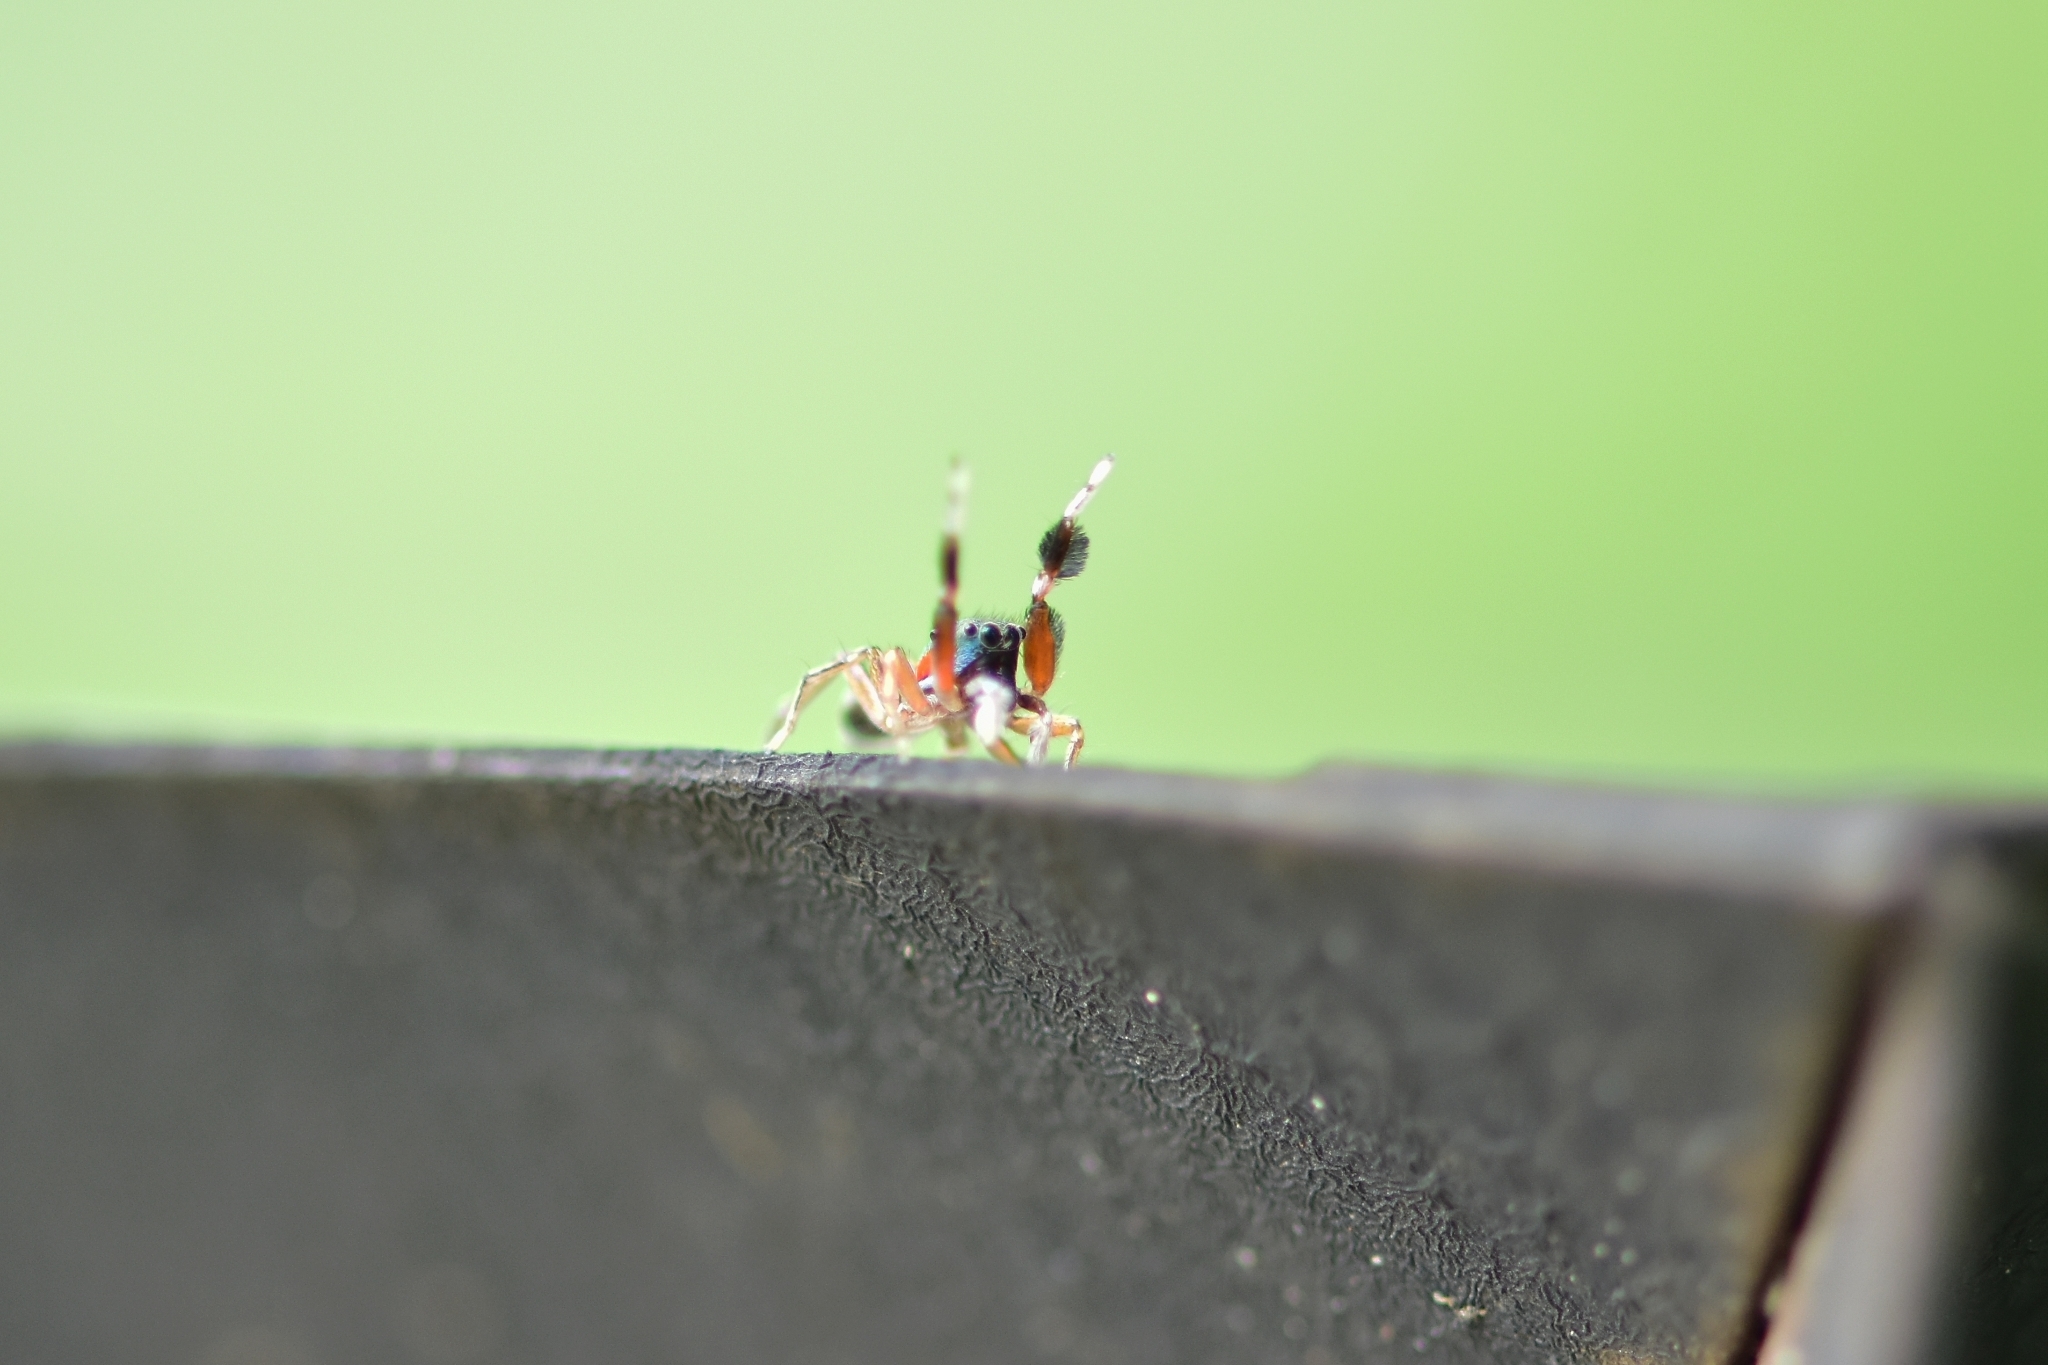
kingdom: Animalia
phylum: Arthropoda
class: Arachnida
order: Araneae
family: Salticidae
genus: Siler
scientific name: Siler semiglaucus
